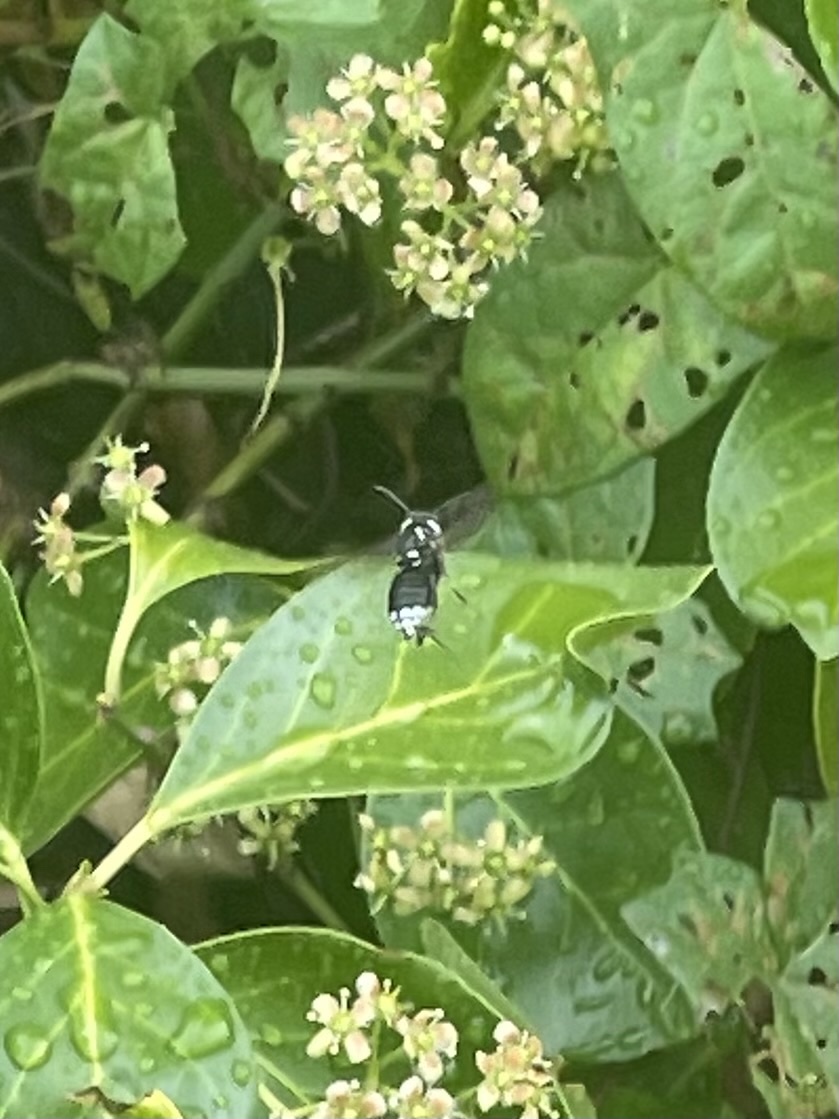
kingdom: Animalia
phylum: Arthropoda
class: Insecta
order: Hymenoptera
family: Vespidae
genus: Dolichovespula
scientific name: Dolichovespula maculata
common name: Bald-faced hornet
